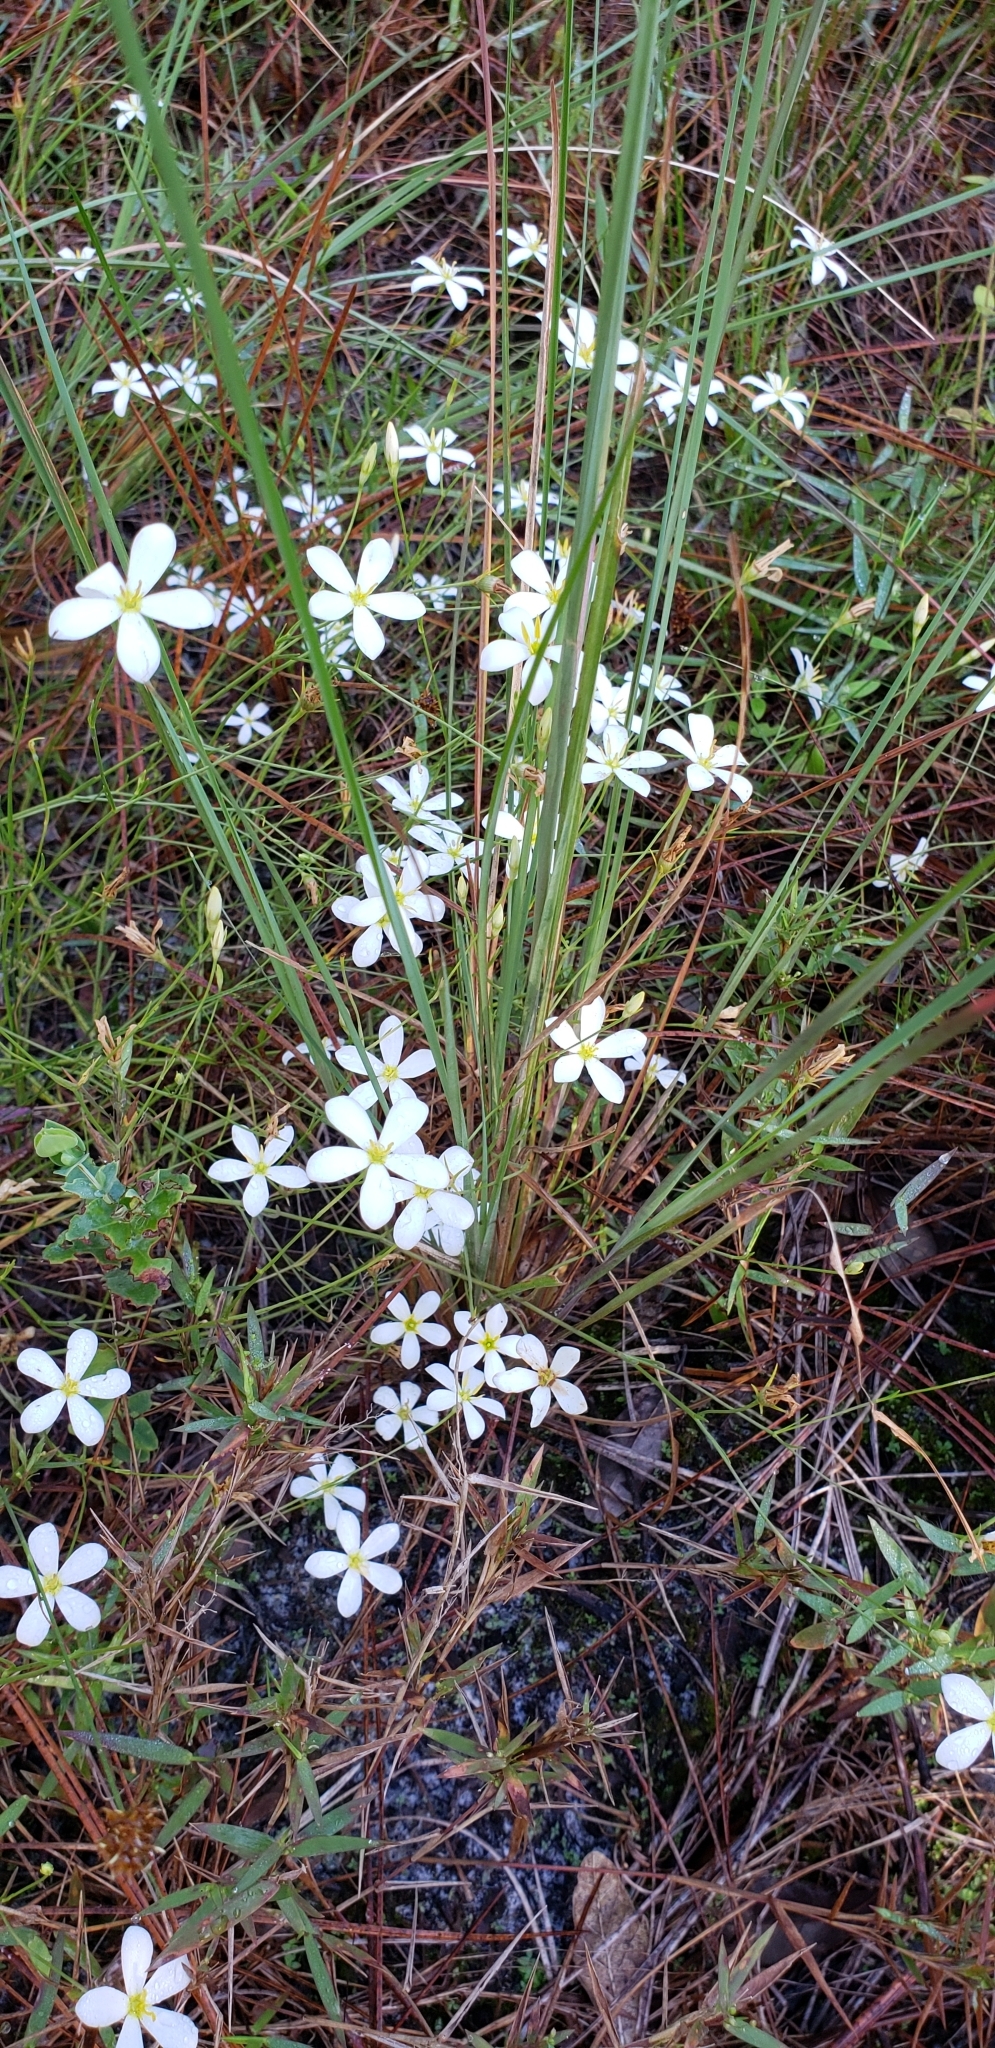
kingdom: Plantae
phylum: Tracheophyta
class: Magnoliopsida
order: Gentianales
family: Gentianaceae
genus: Sabatia
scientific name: Sabatia brevifolia
